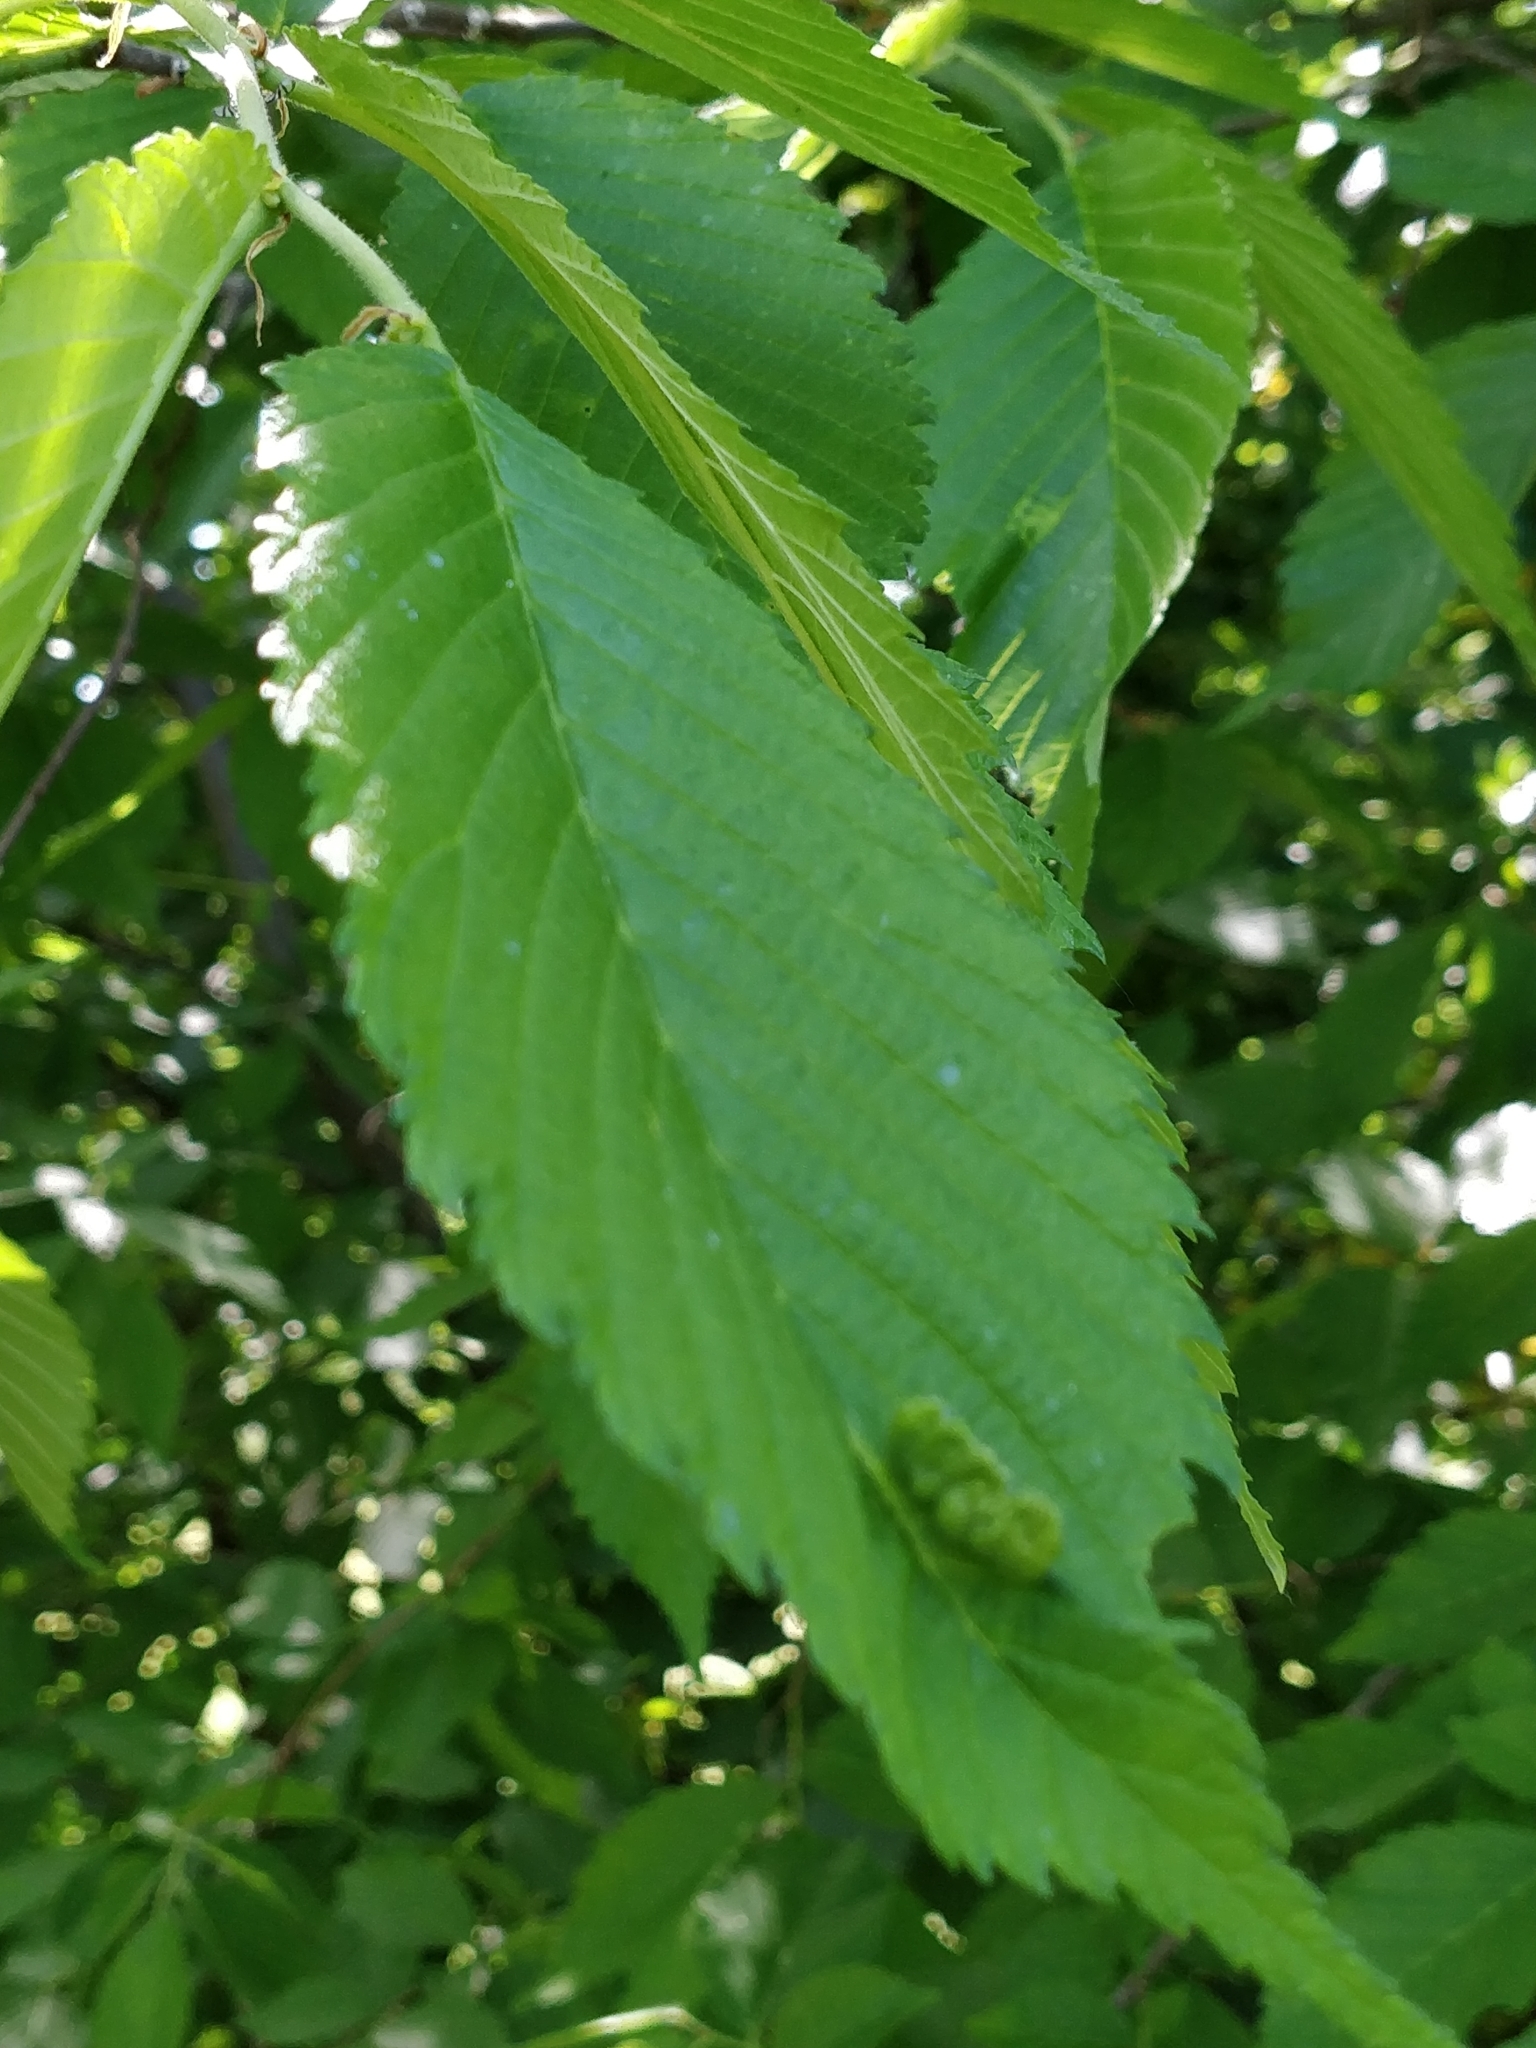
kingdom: Animalia
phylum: Arthropoda
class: Insecta
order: Hemiptera
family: Aphididae
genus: Colopha
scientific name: Colopha ulmicola
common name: Elm cockscombgall aphid
